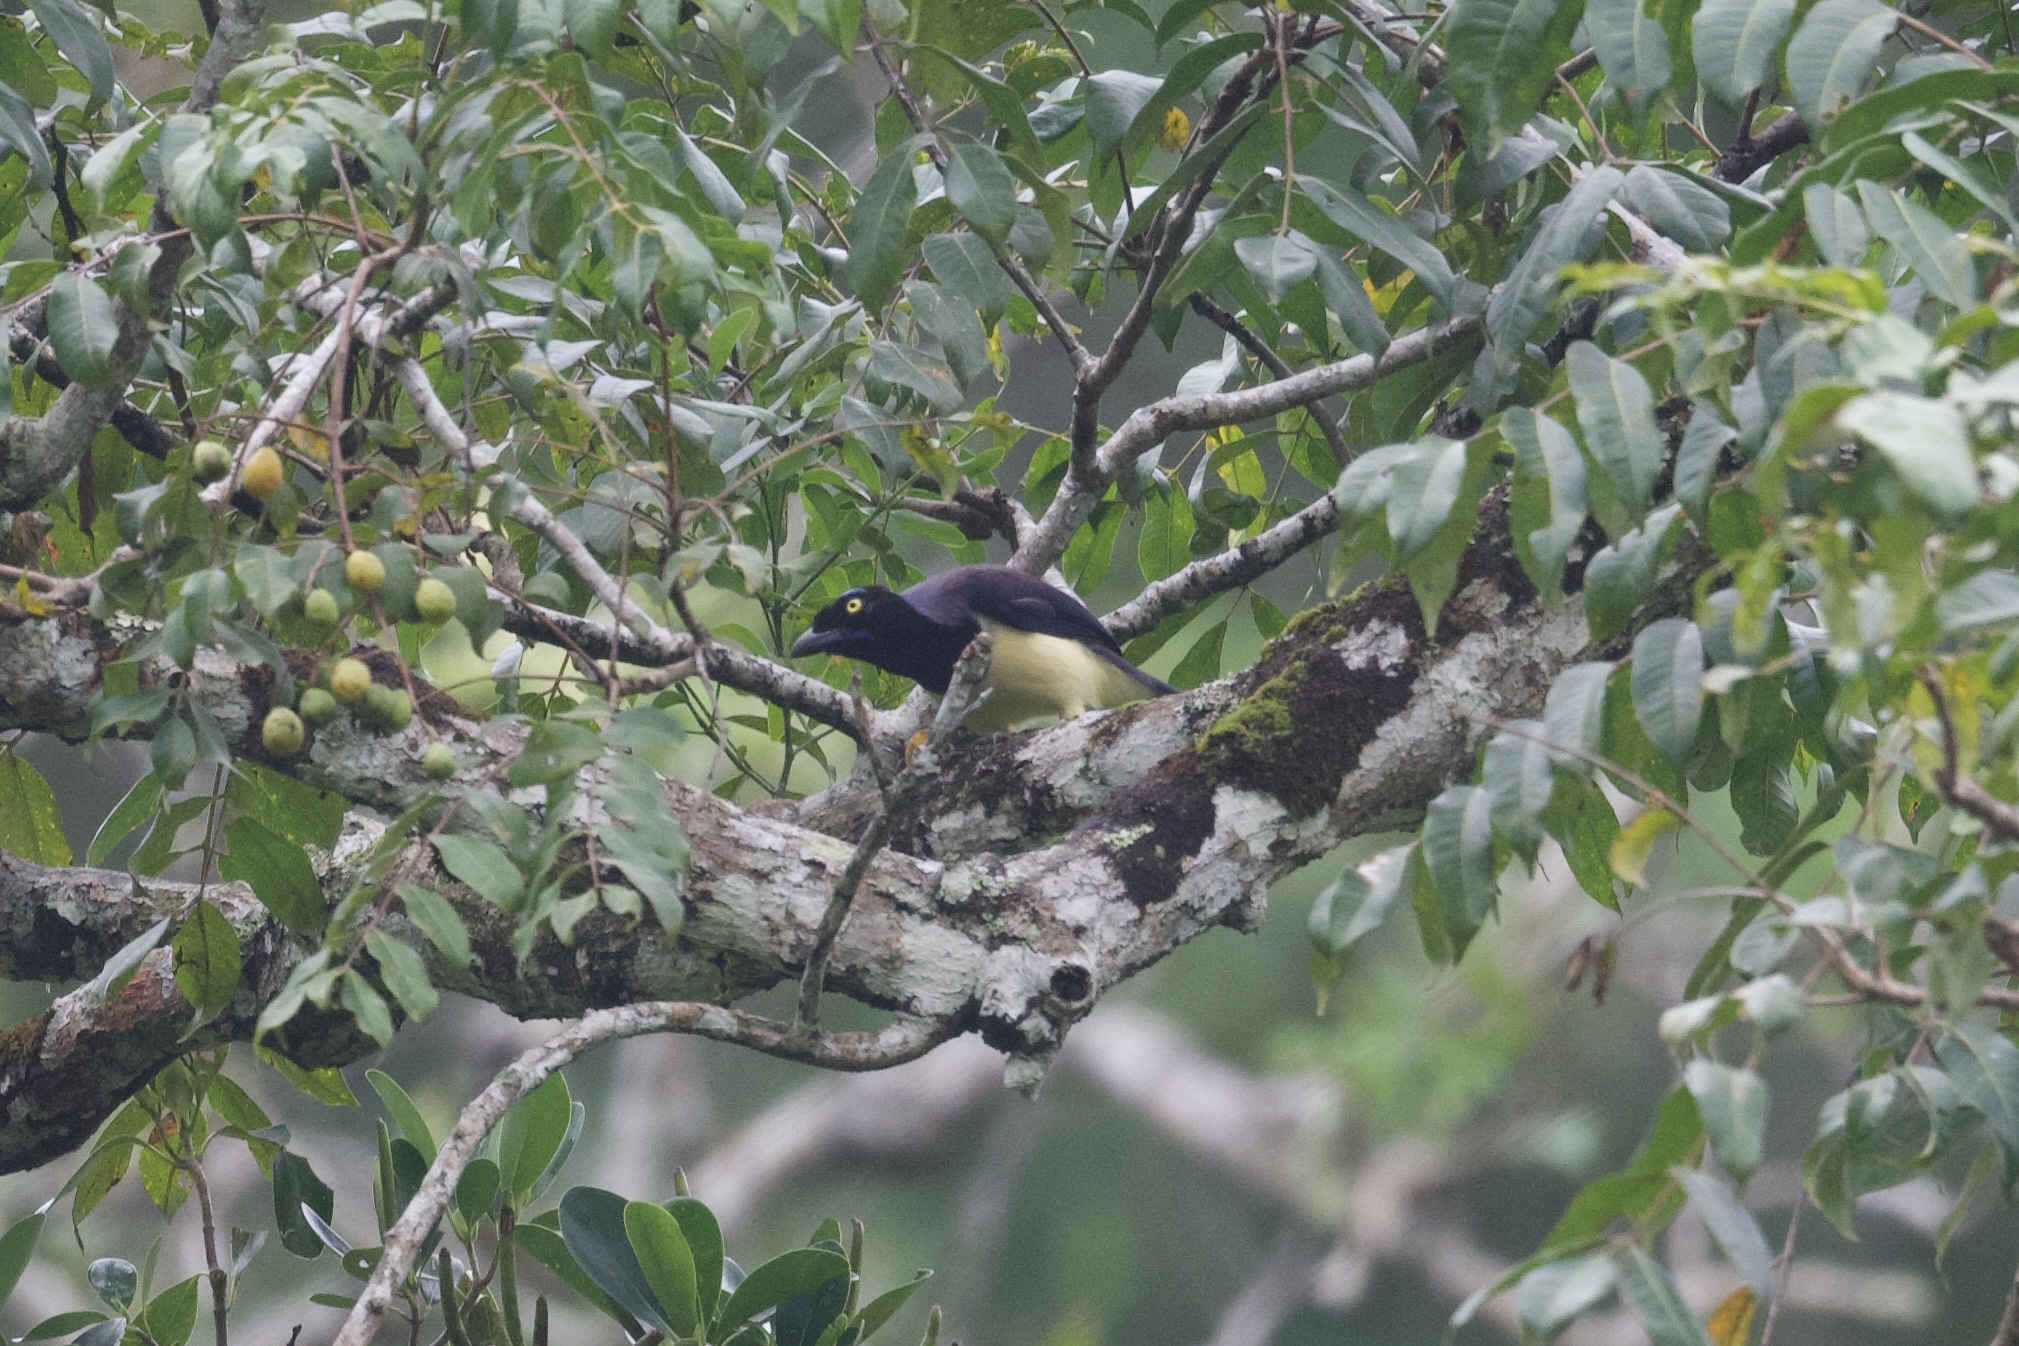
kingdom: Animalia
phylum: Chordata
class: Aves
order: Passeriformes
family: Corvidae
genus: Cyanocorax
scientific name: Cyanocorax affinis
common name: Black-chested jay
